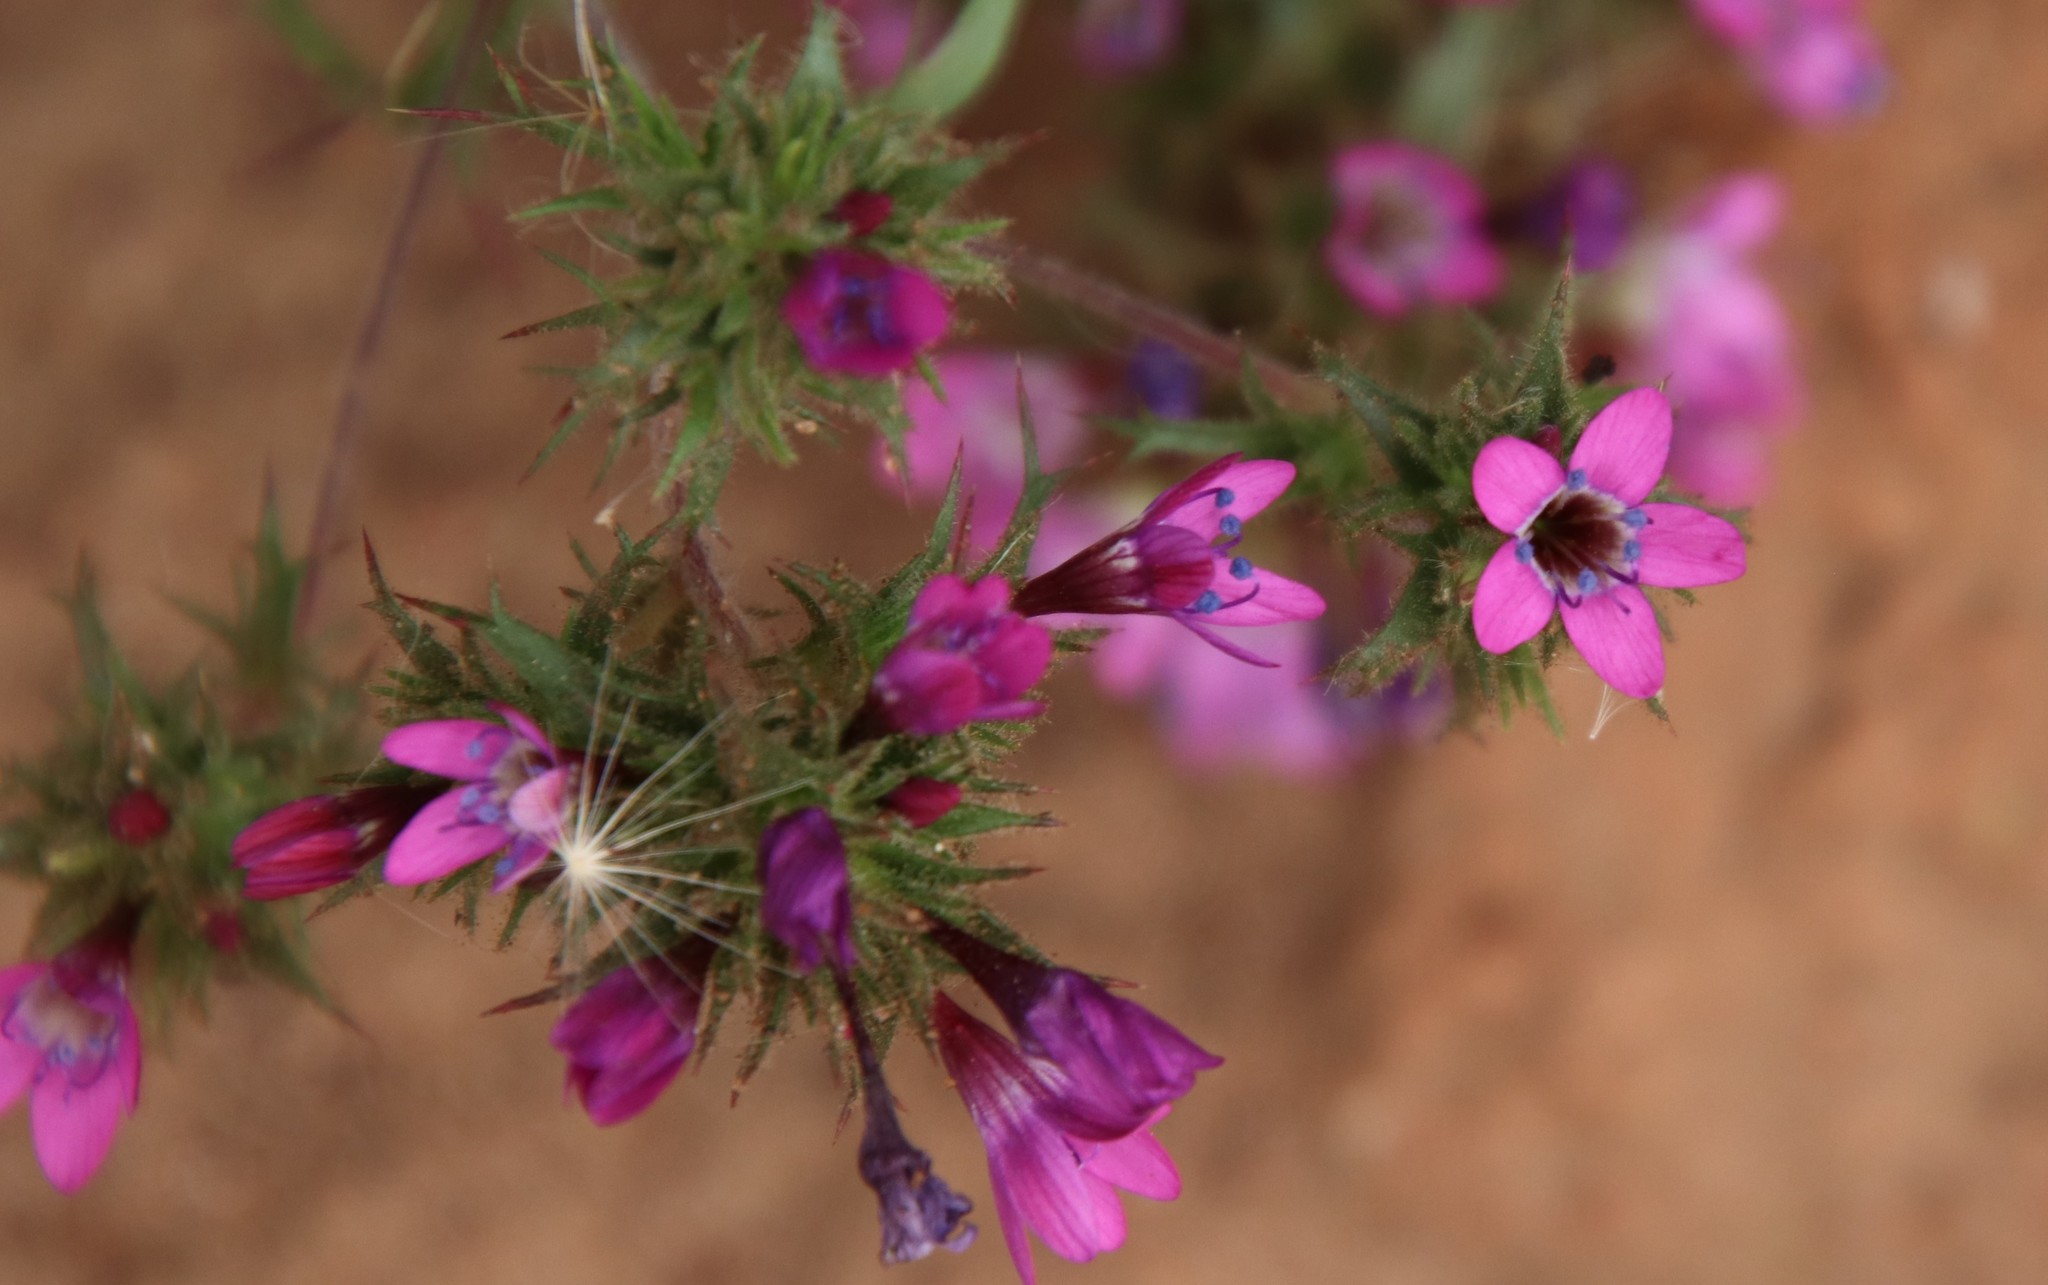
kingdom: Plantae
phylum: Tracheophyta
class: Magnoliopsida
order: Ericales
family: Polemoniaceae
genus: Navarretia
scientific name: Navarretia hamata
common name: Hooked navarretia
